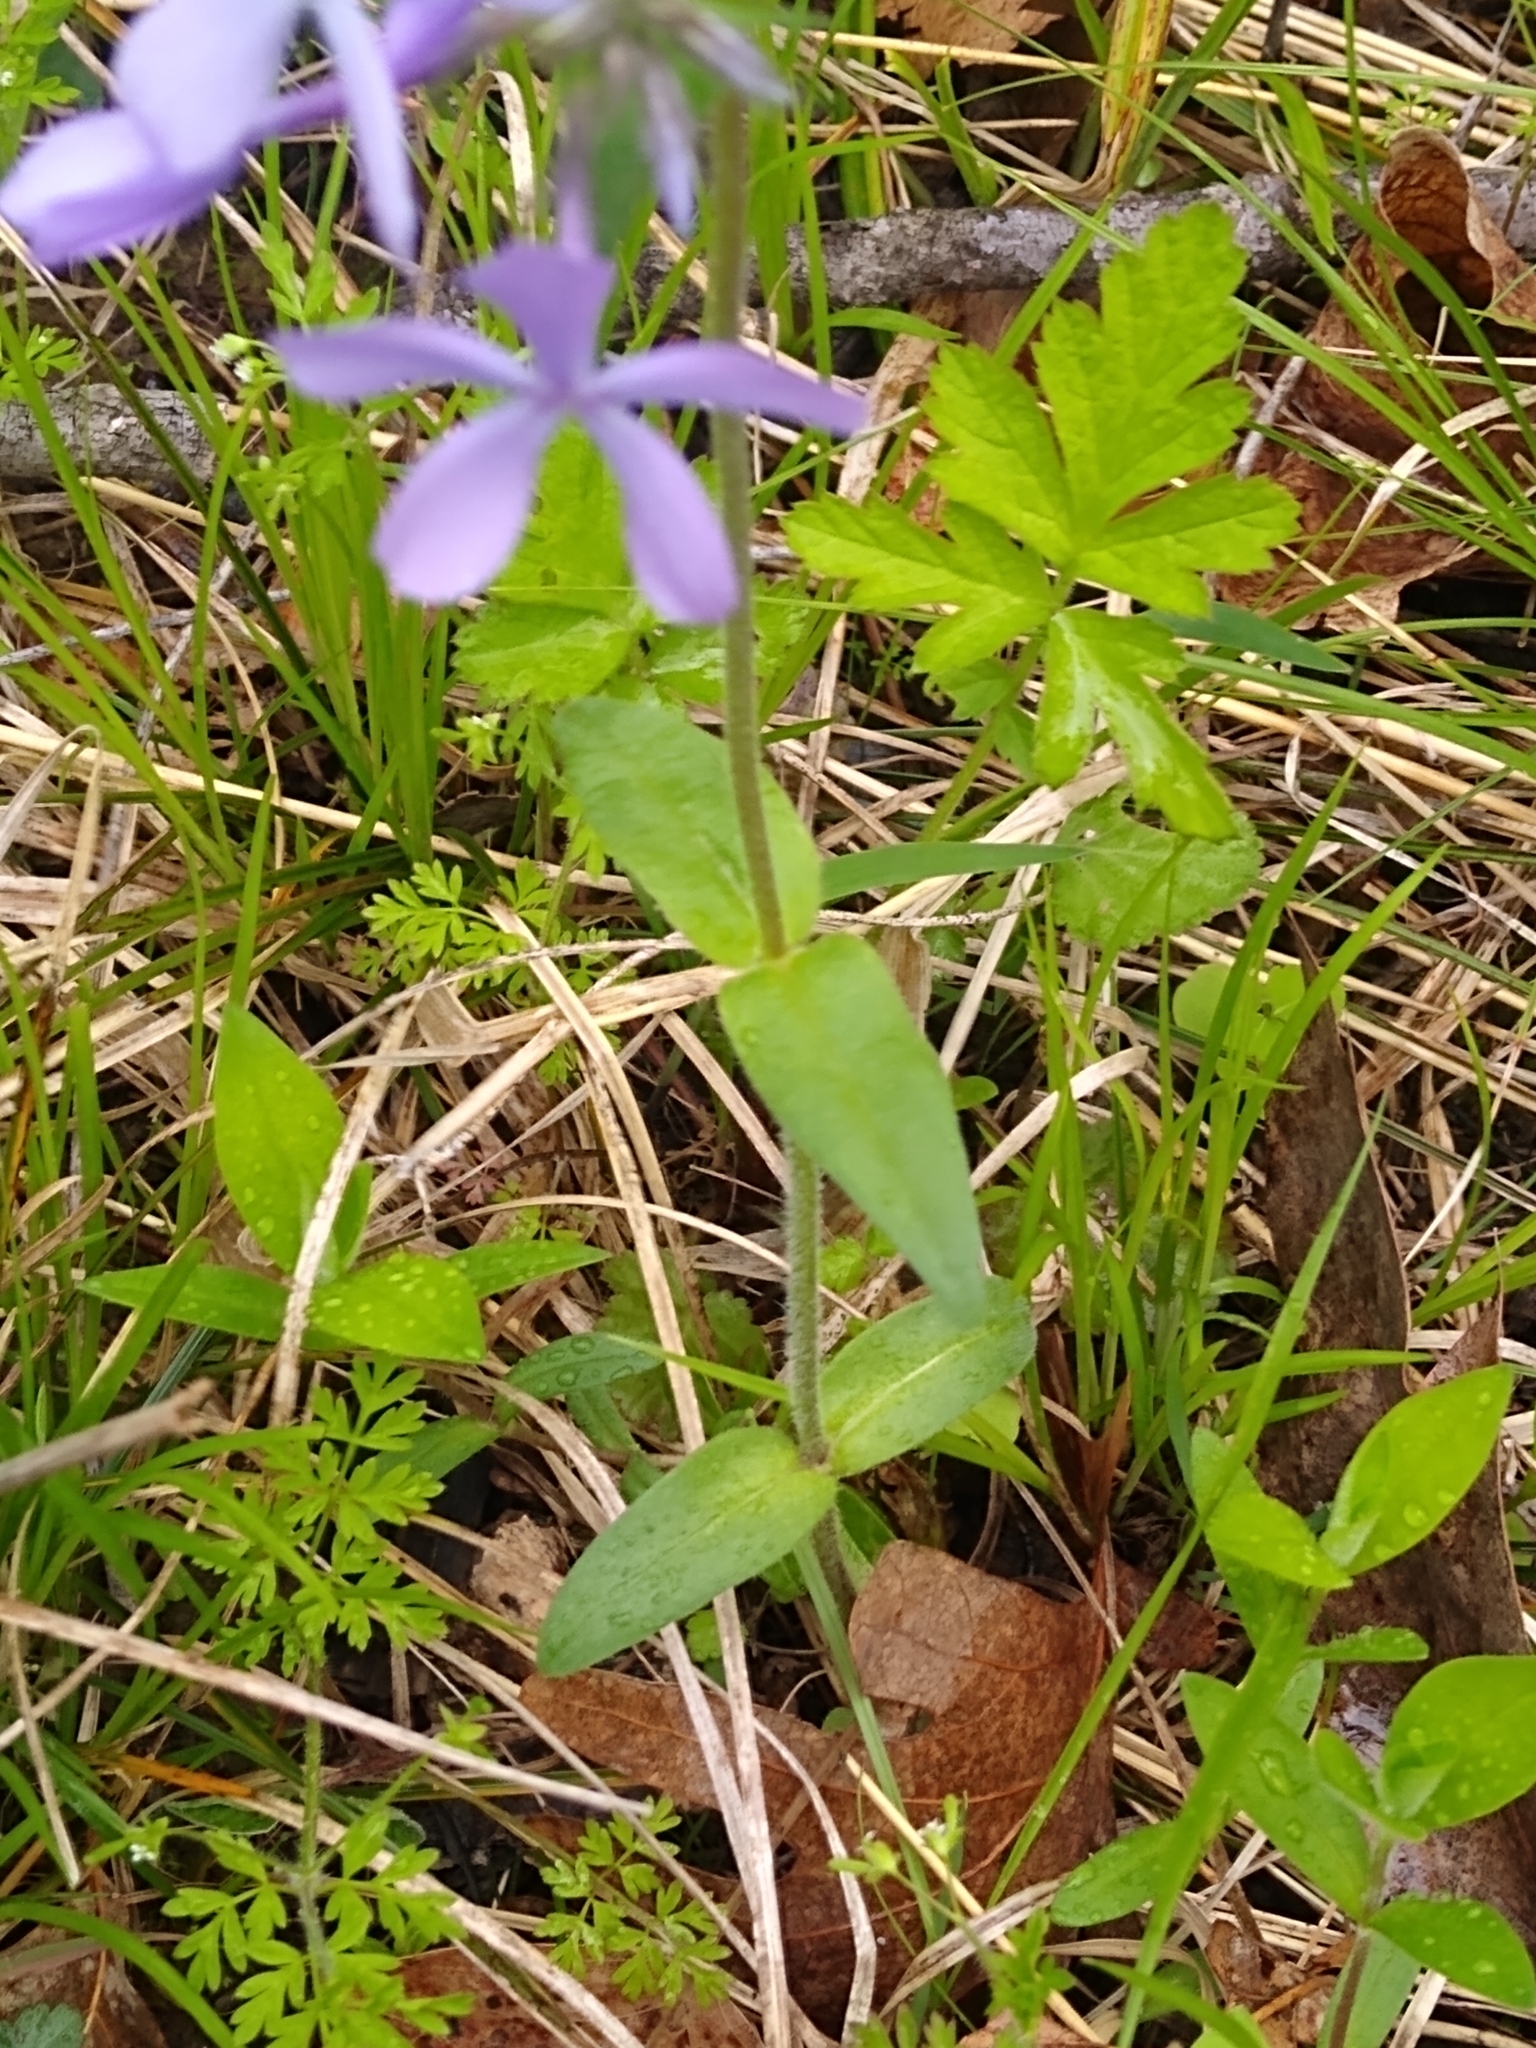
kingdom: Plantae
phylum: Tracheophyta
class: Magnoliopsida
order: Ericales
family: Polemoniaceae
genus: Phlox
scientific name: Phlox divaricata
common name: Blue phlox
